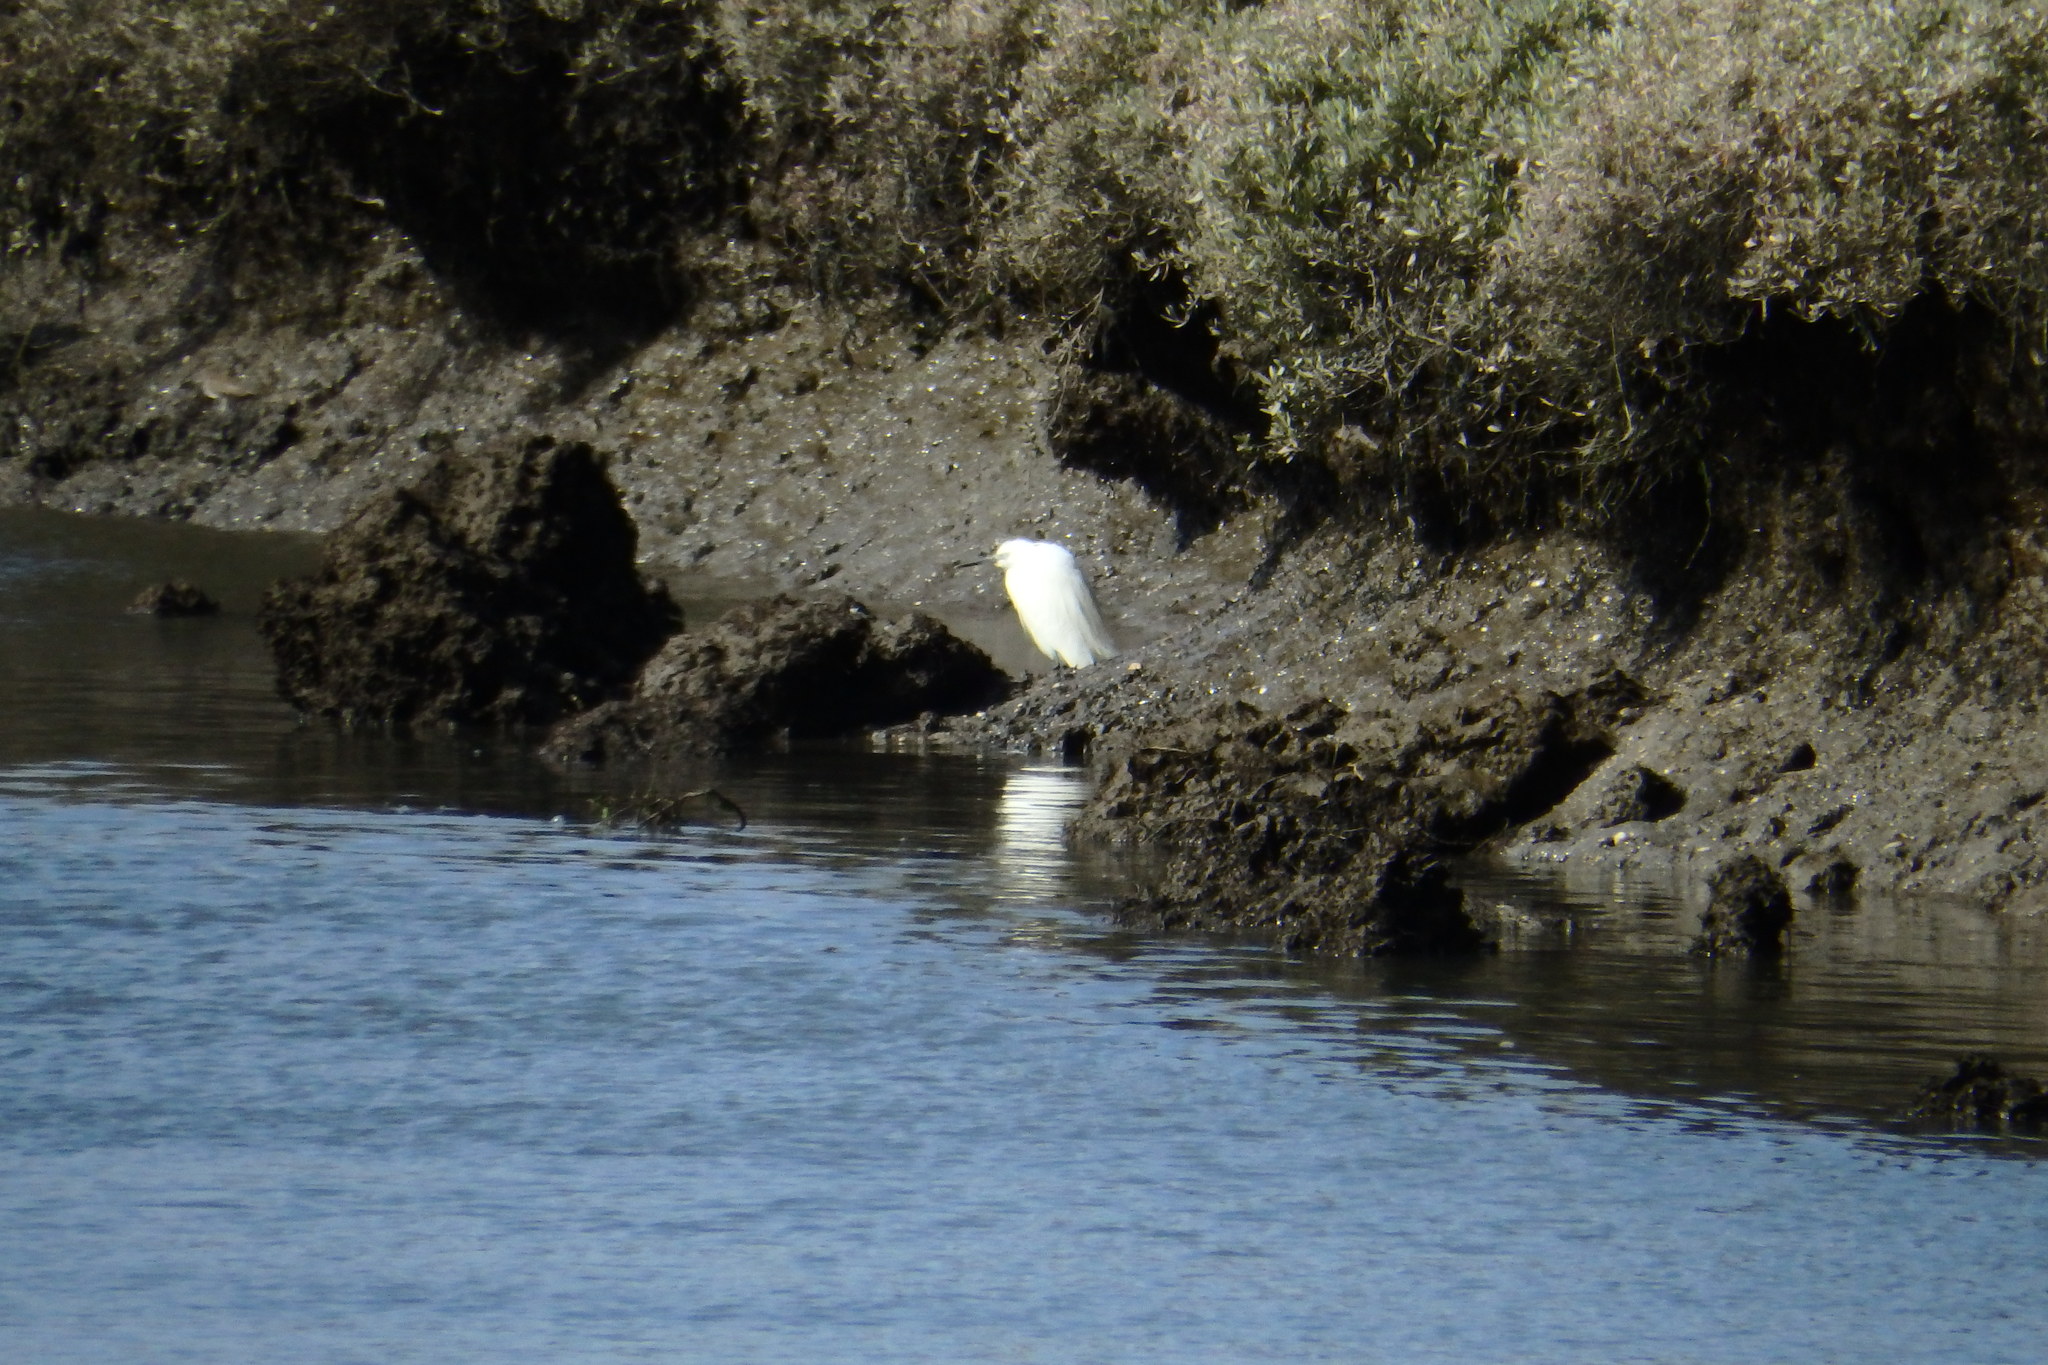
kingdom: Animalia
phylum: Chordata
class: Aves
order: Pelecaniformes
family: Ardeidae
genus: Egretta
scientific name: Egretta garzetta
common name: Little egret
